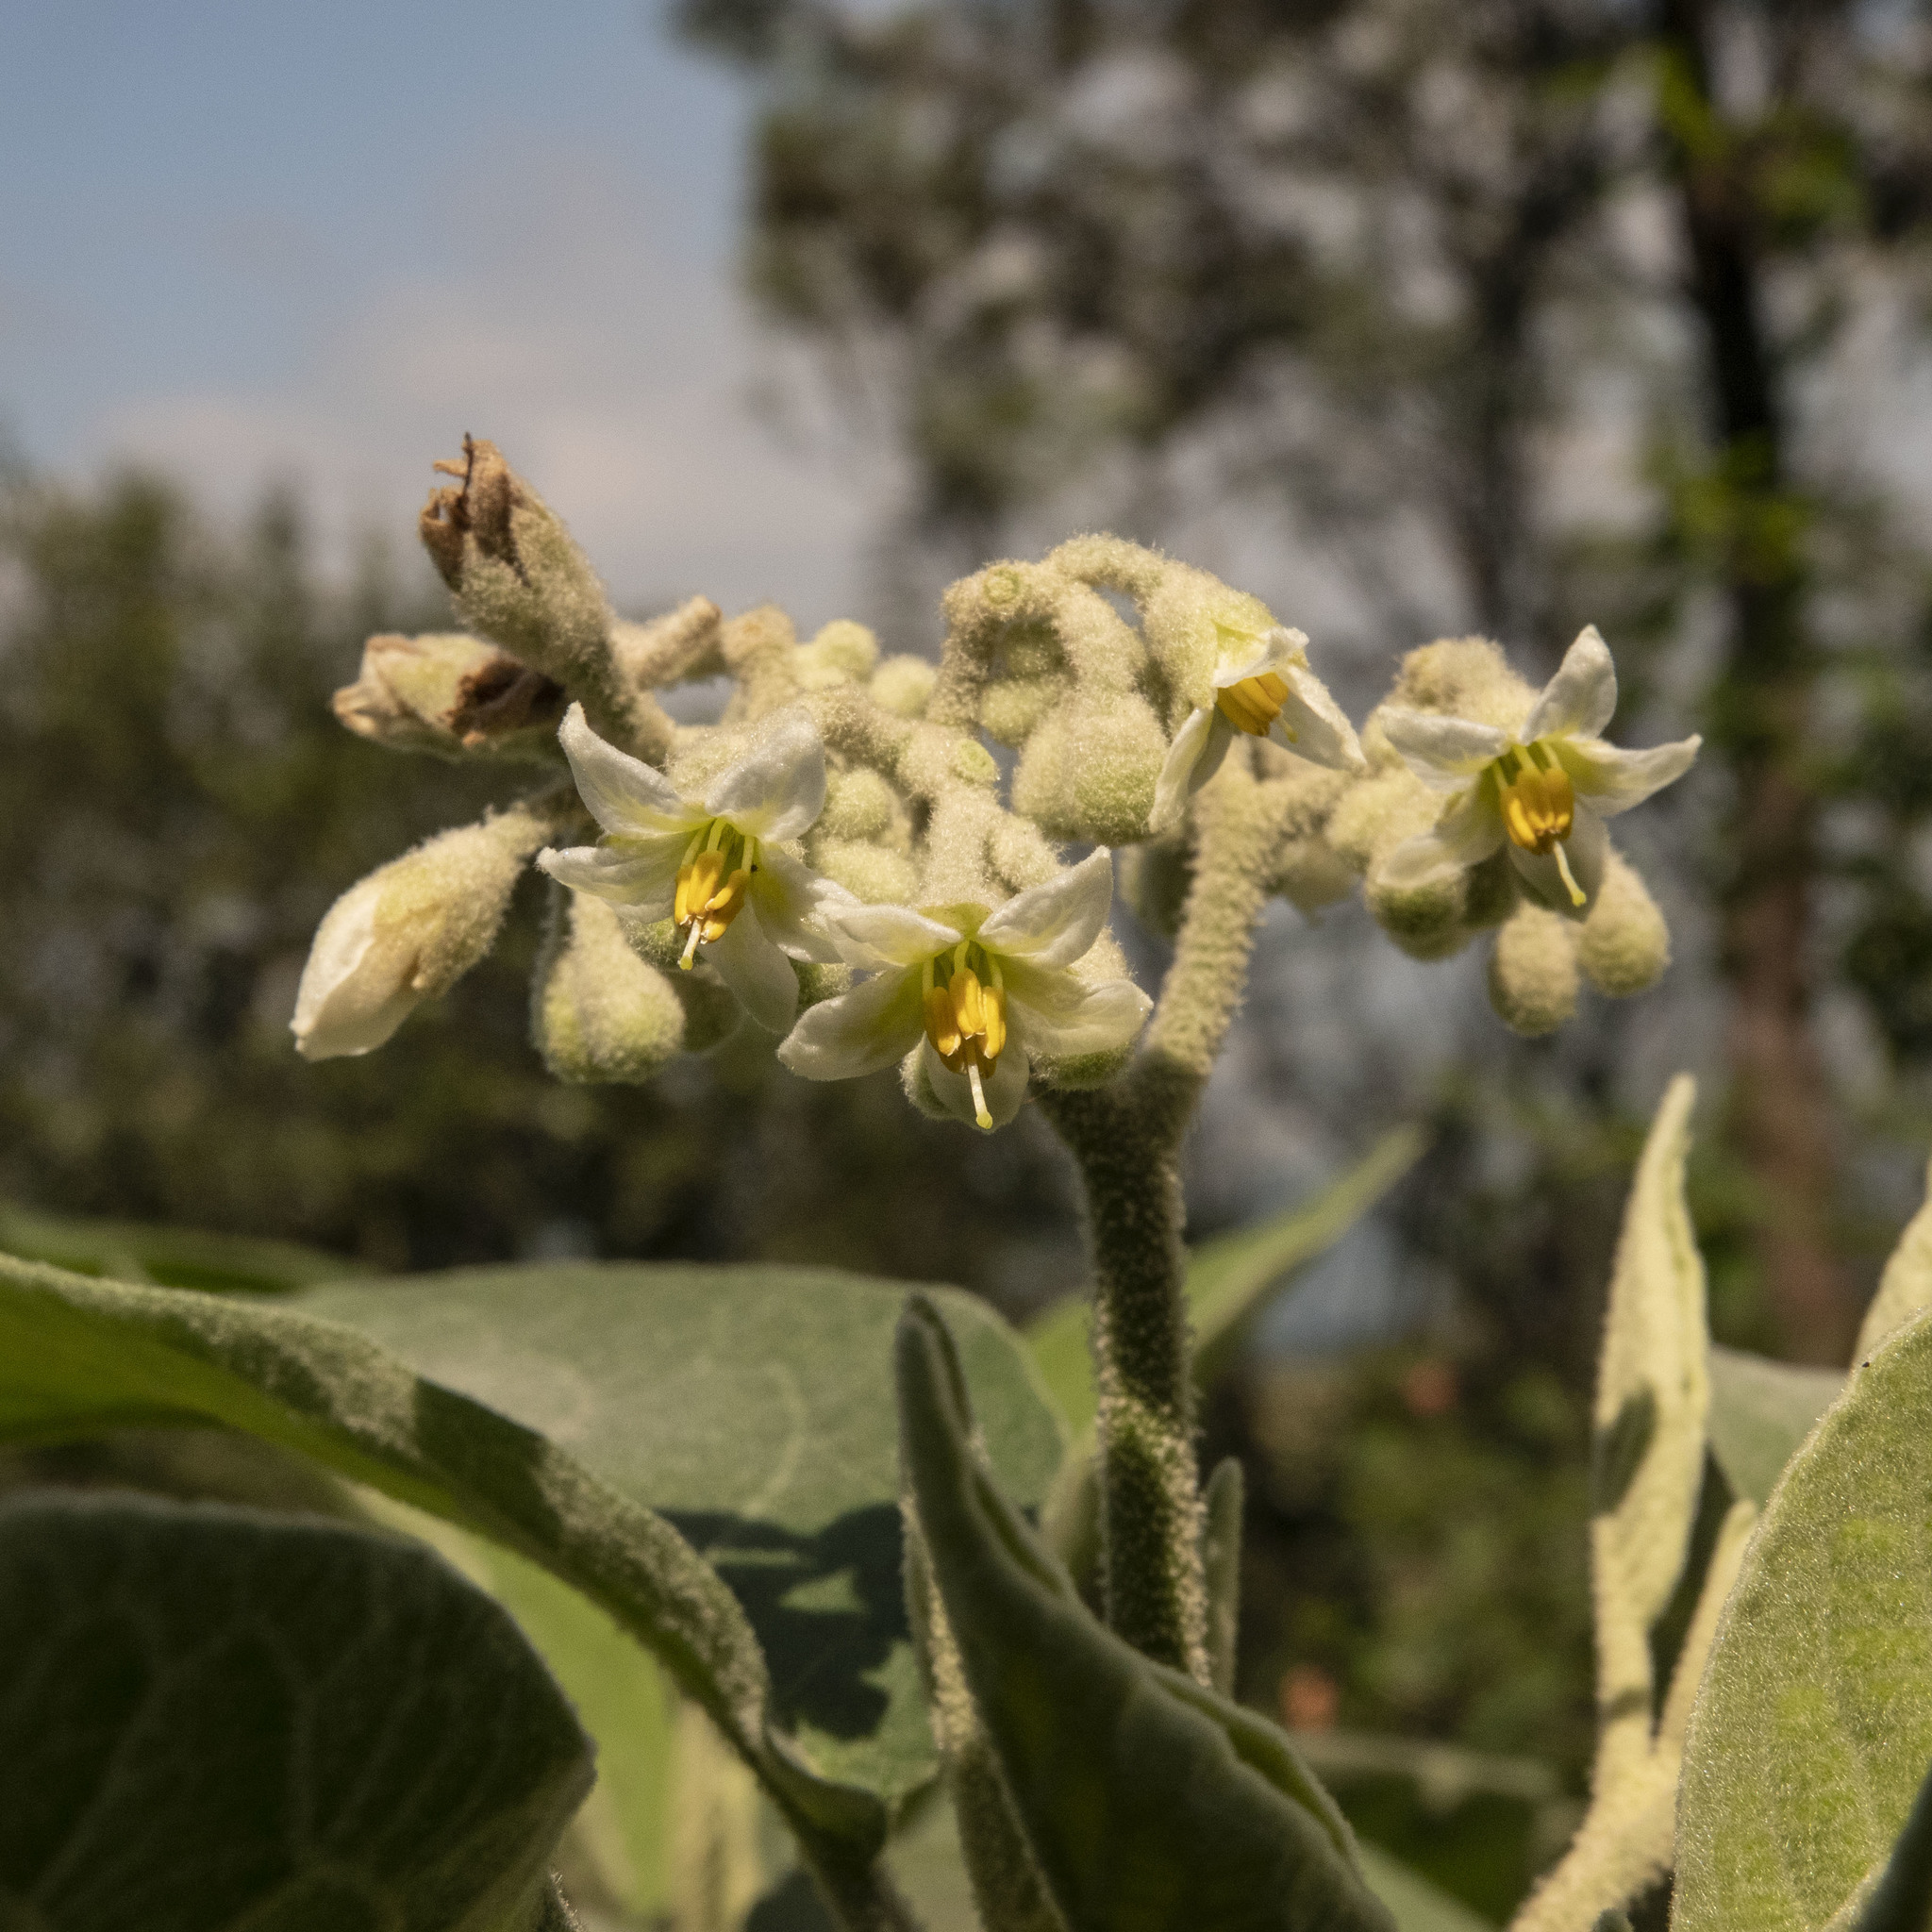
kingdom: Plantae
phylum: Tracheophyta
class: Magnoliopsida
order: Solanales
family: Solanaceae
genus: Solanum
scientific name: Solanum erianthum
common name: Tobacco-tree
